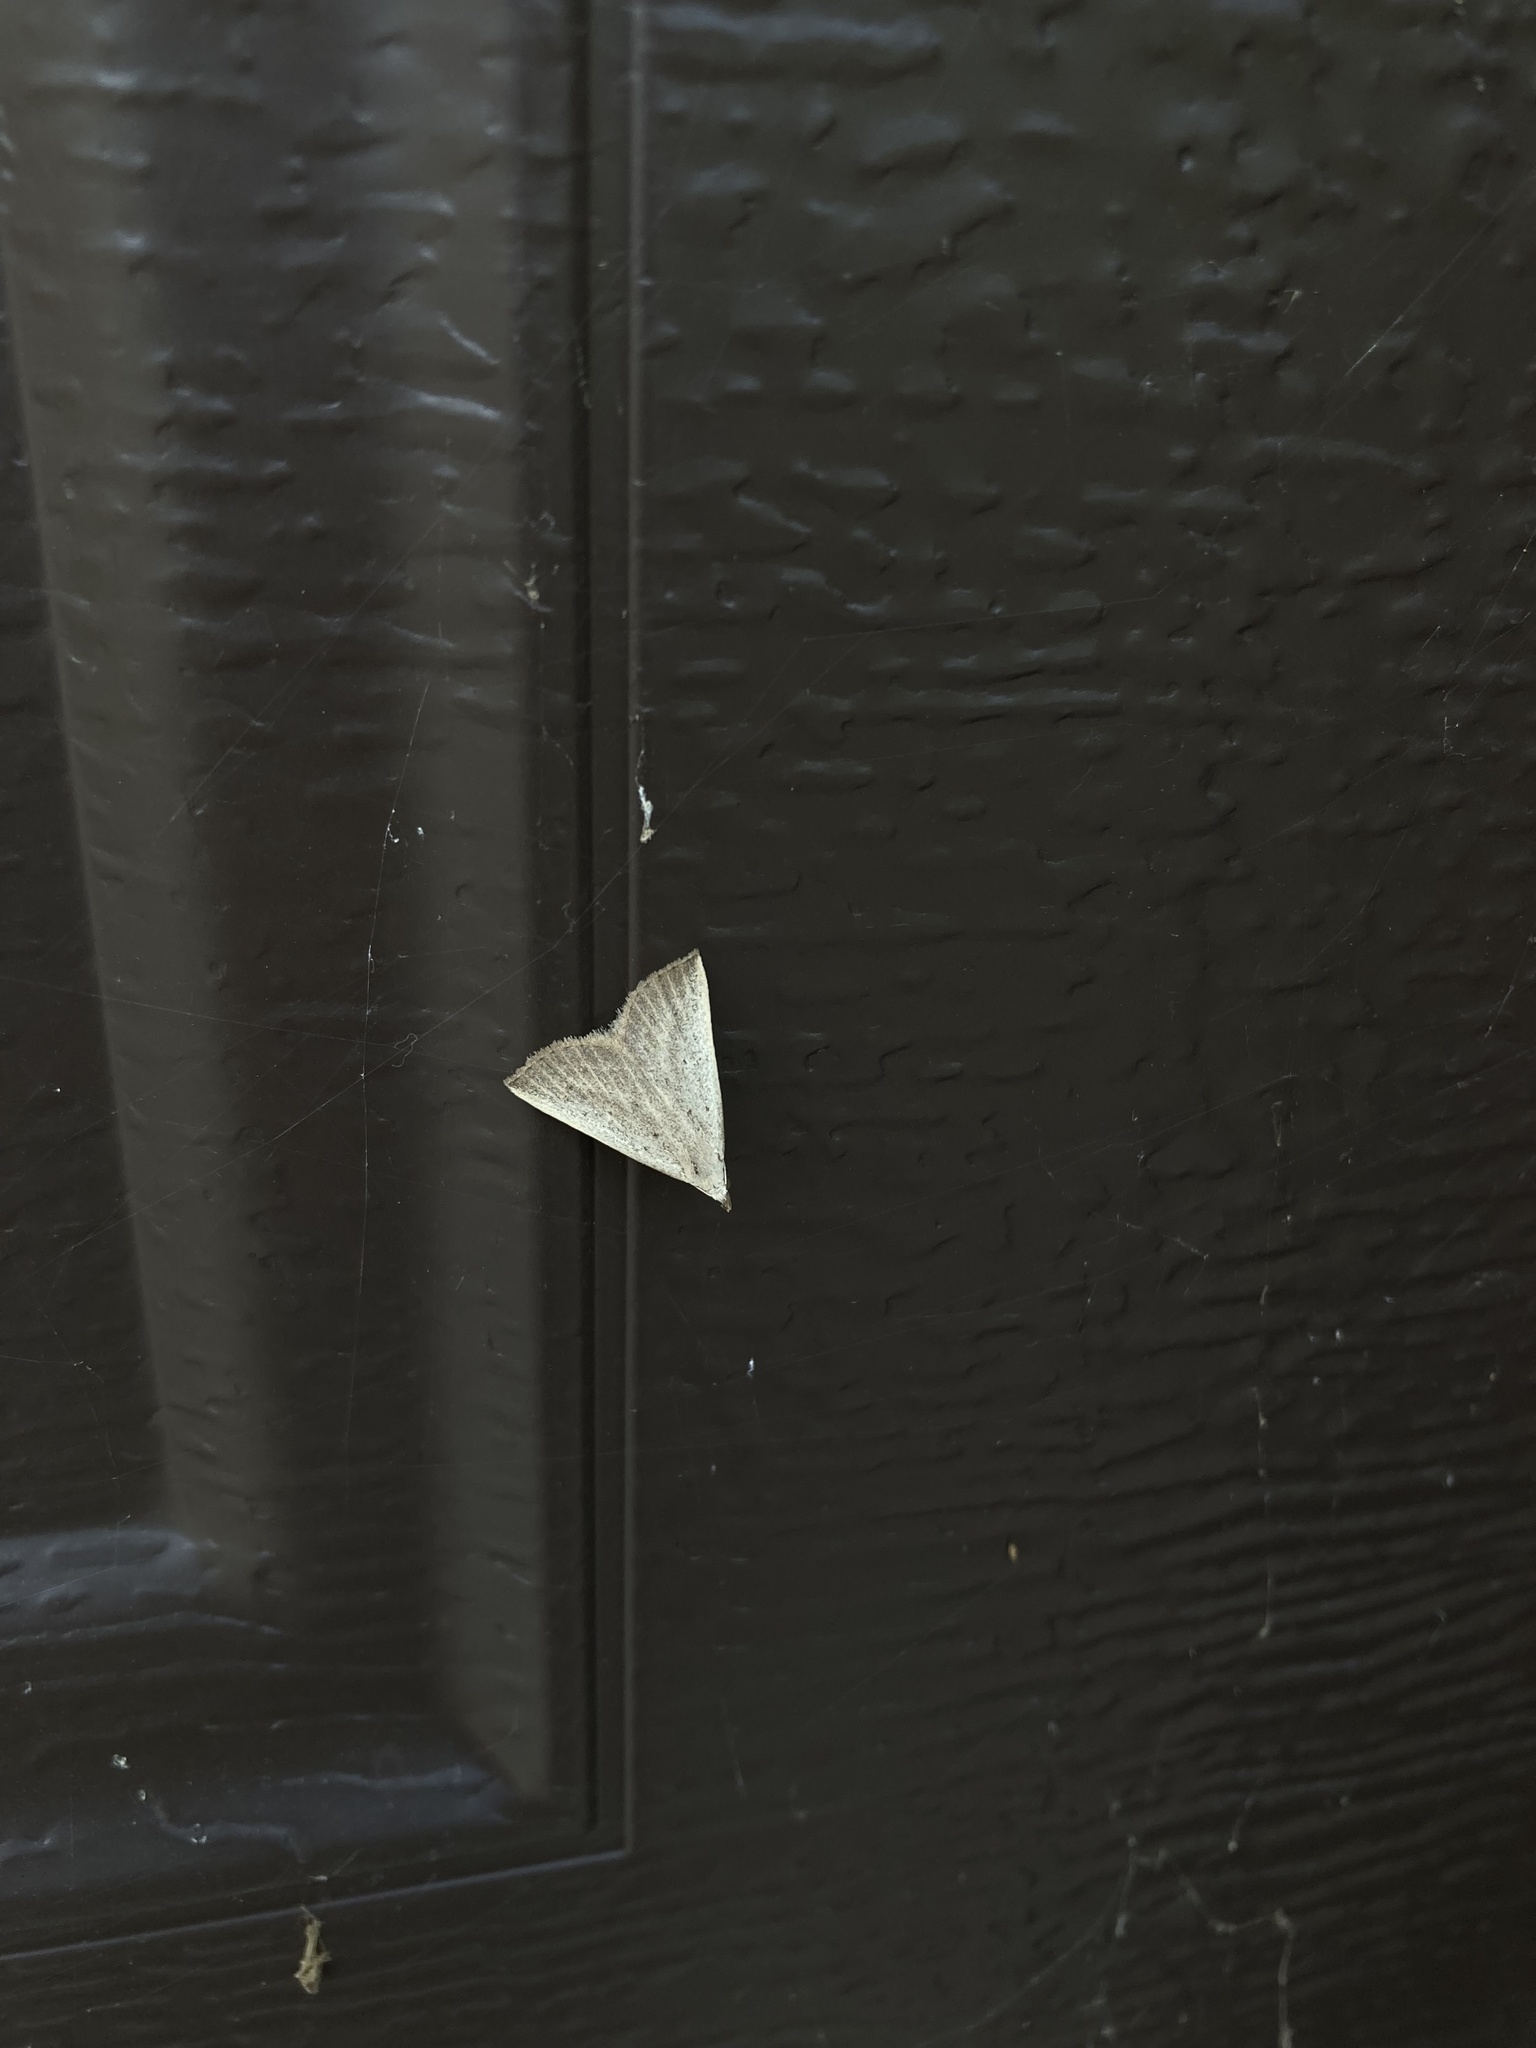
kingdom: Animalia
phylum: Arthropoda
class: Insecta
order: Lepidoptera
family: Erebidae
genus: Macrochilo
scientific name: Macrochilo louisiana
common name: Louisiana macrochilo
